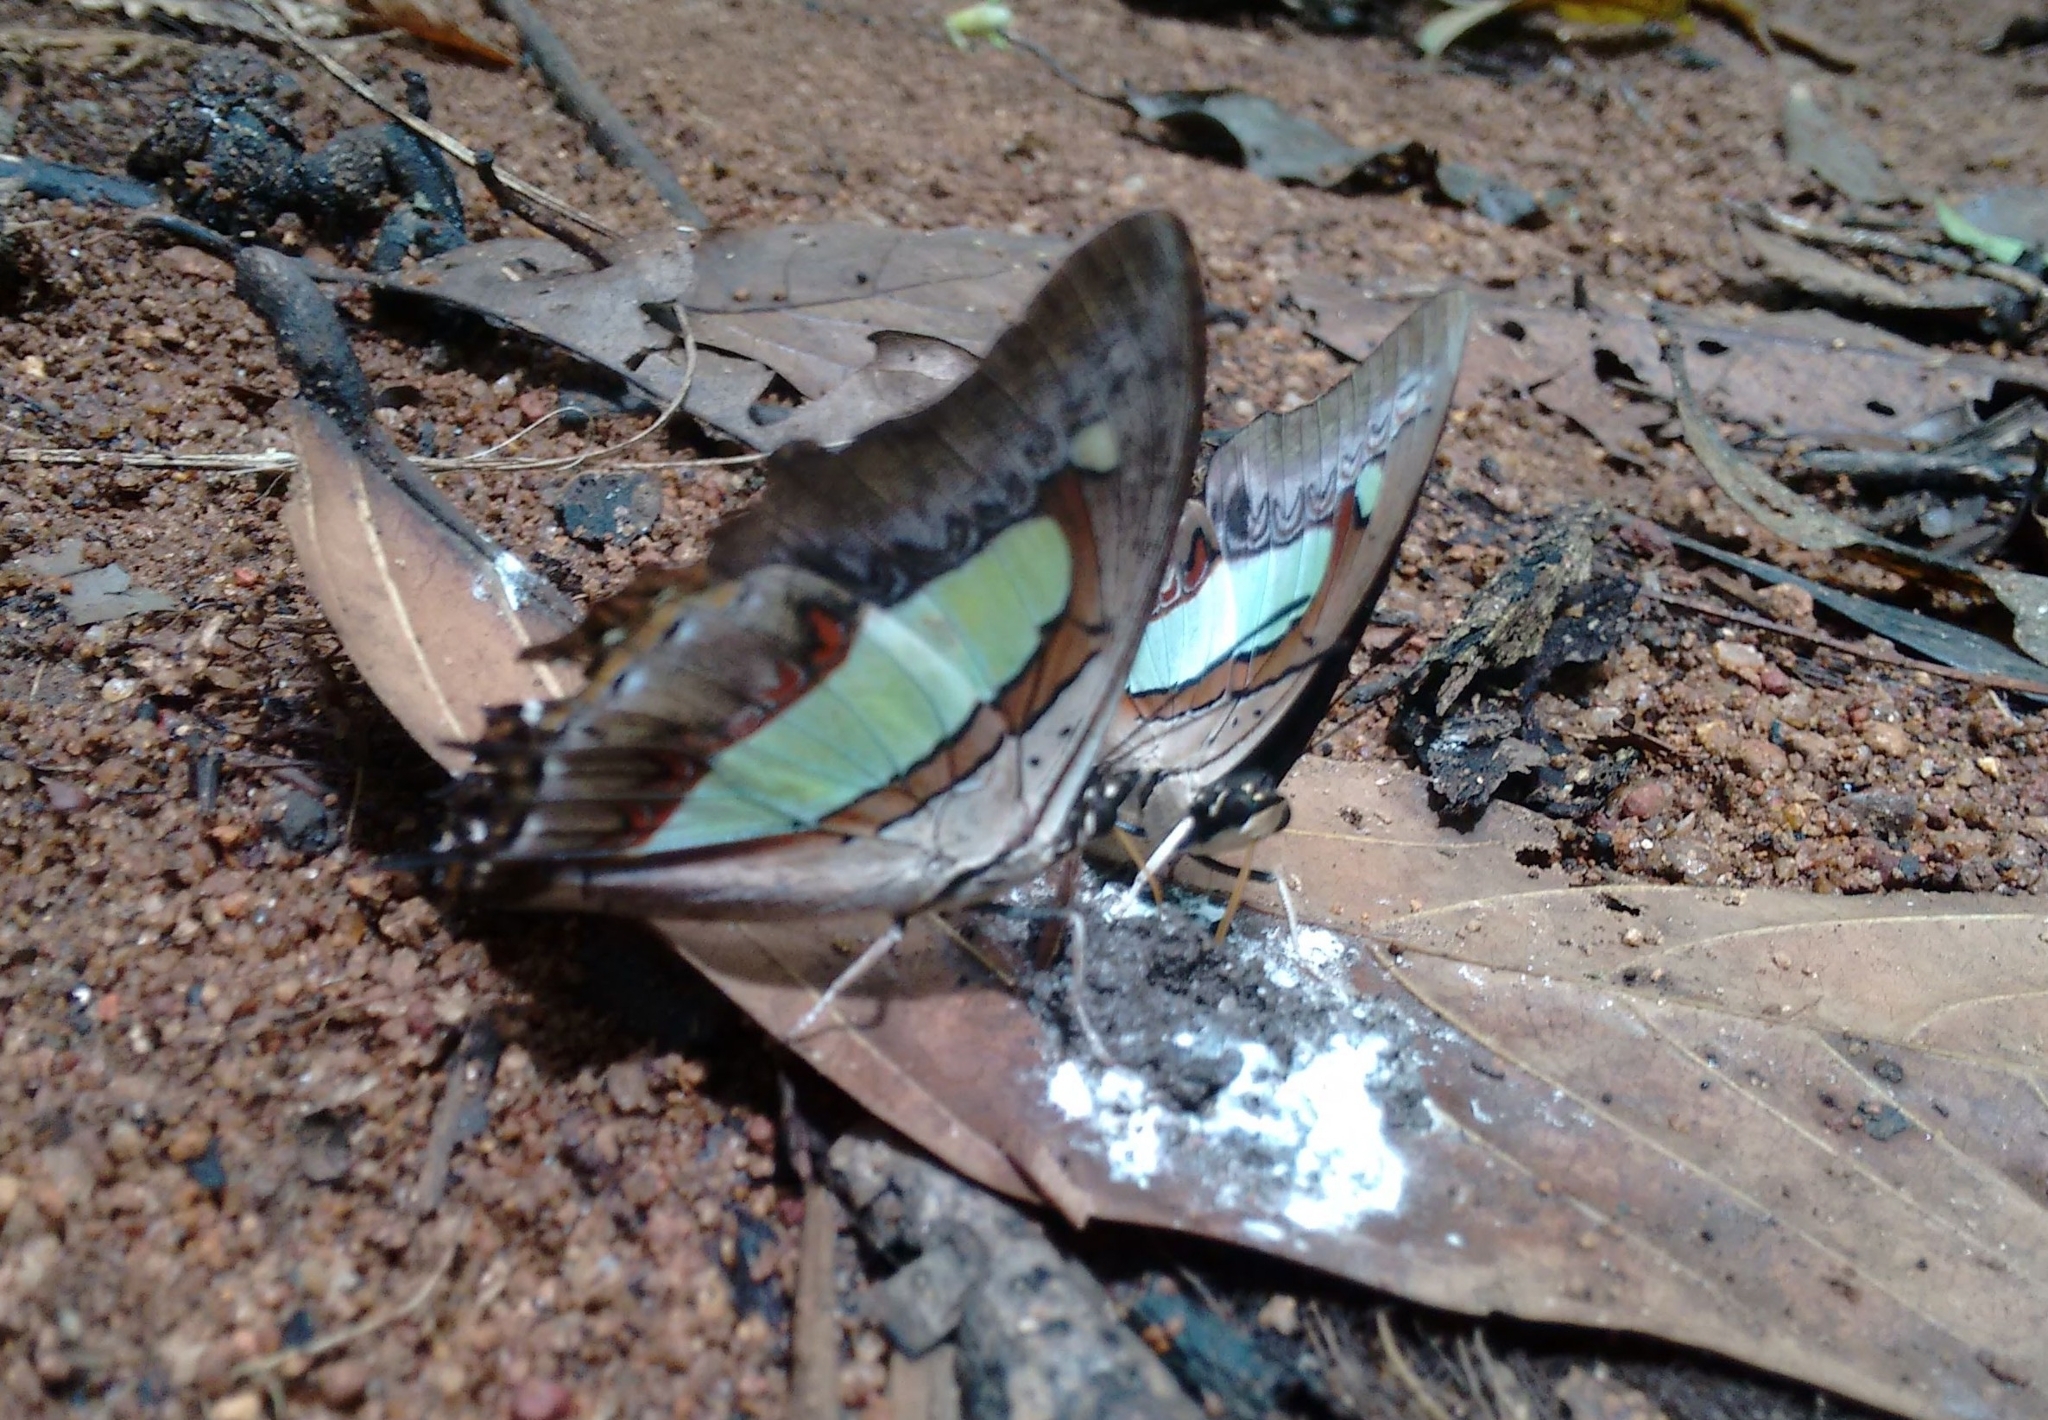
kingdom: Animalia
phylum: Arthropoda
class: Insecta
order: Lepidoptera
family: Nymphalidae
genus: Polyura
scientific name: Polyura
